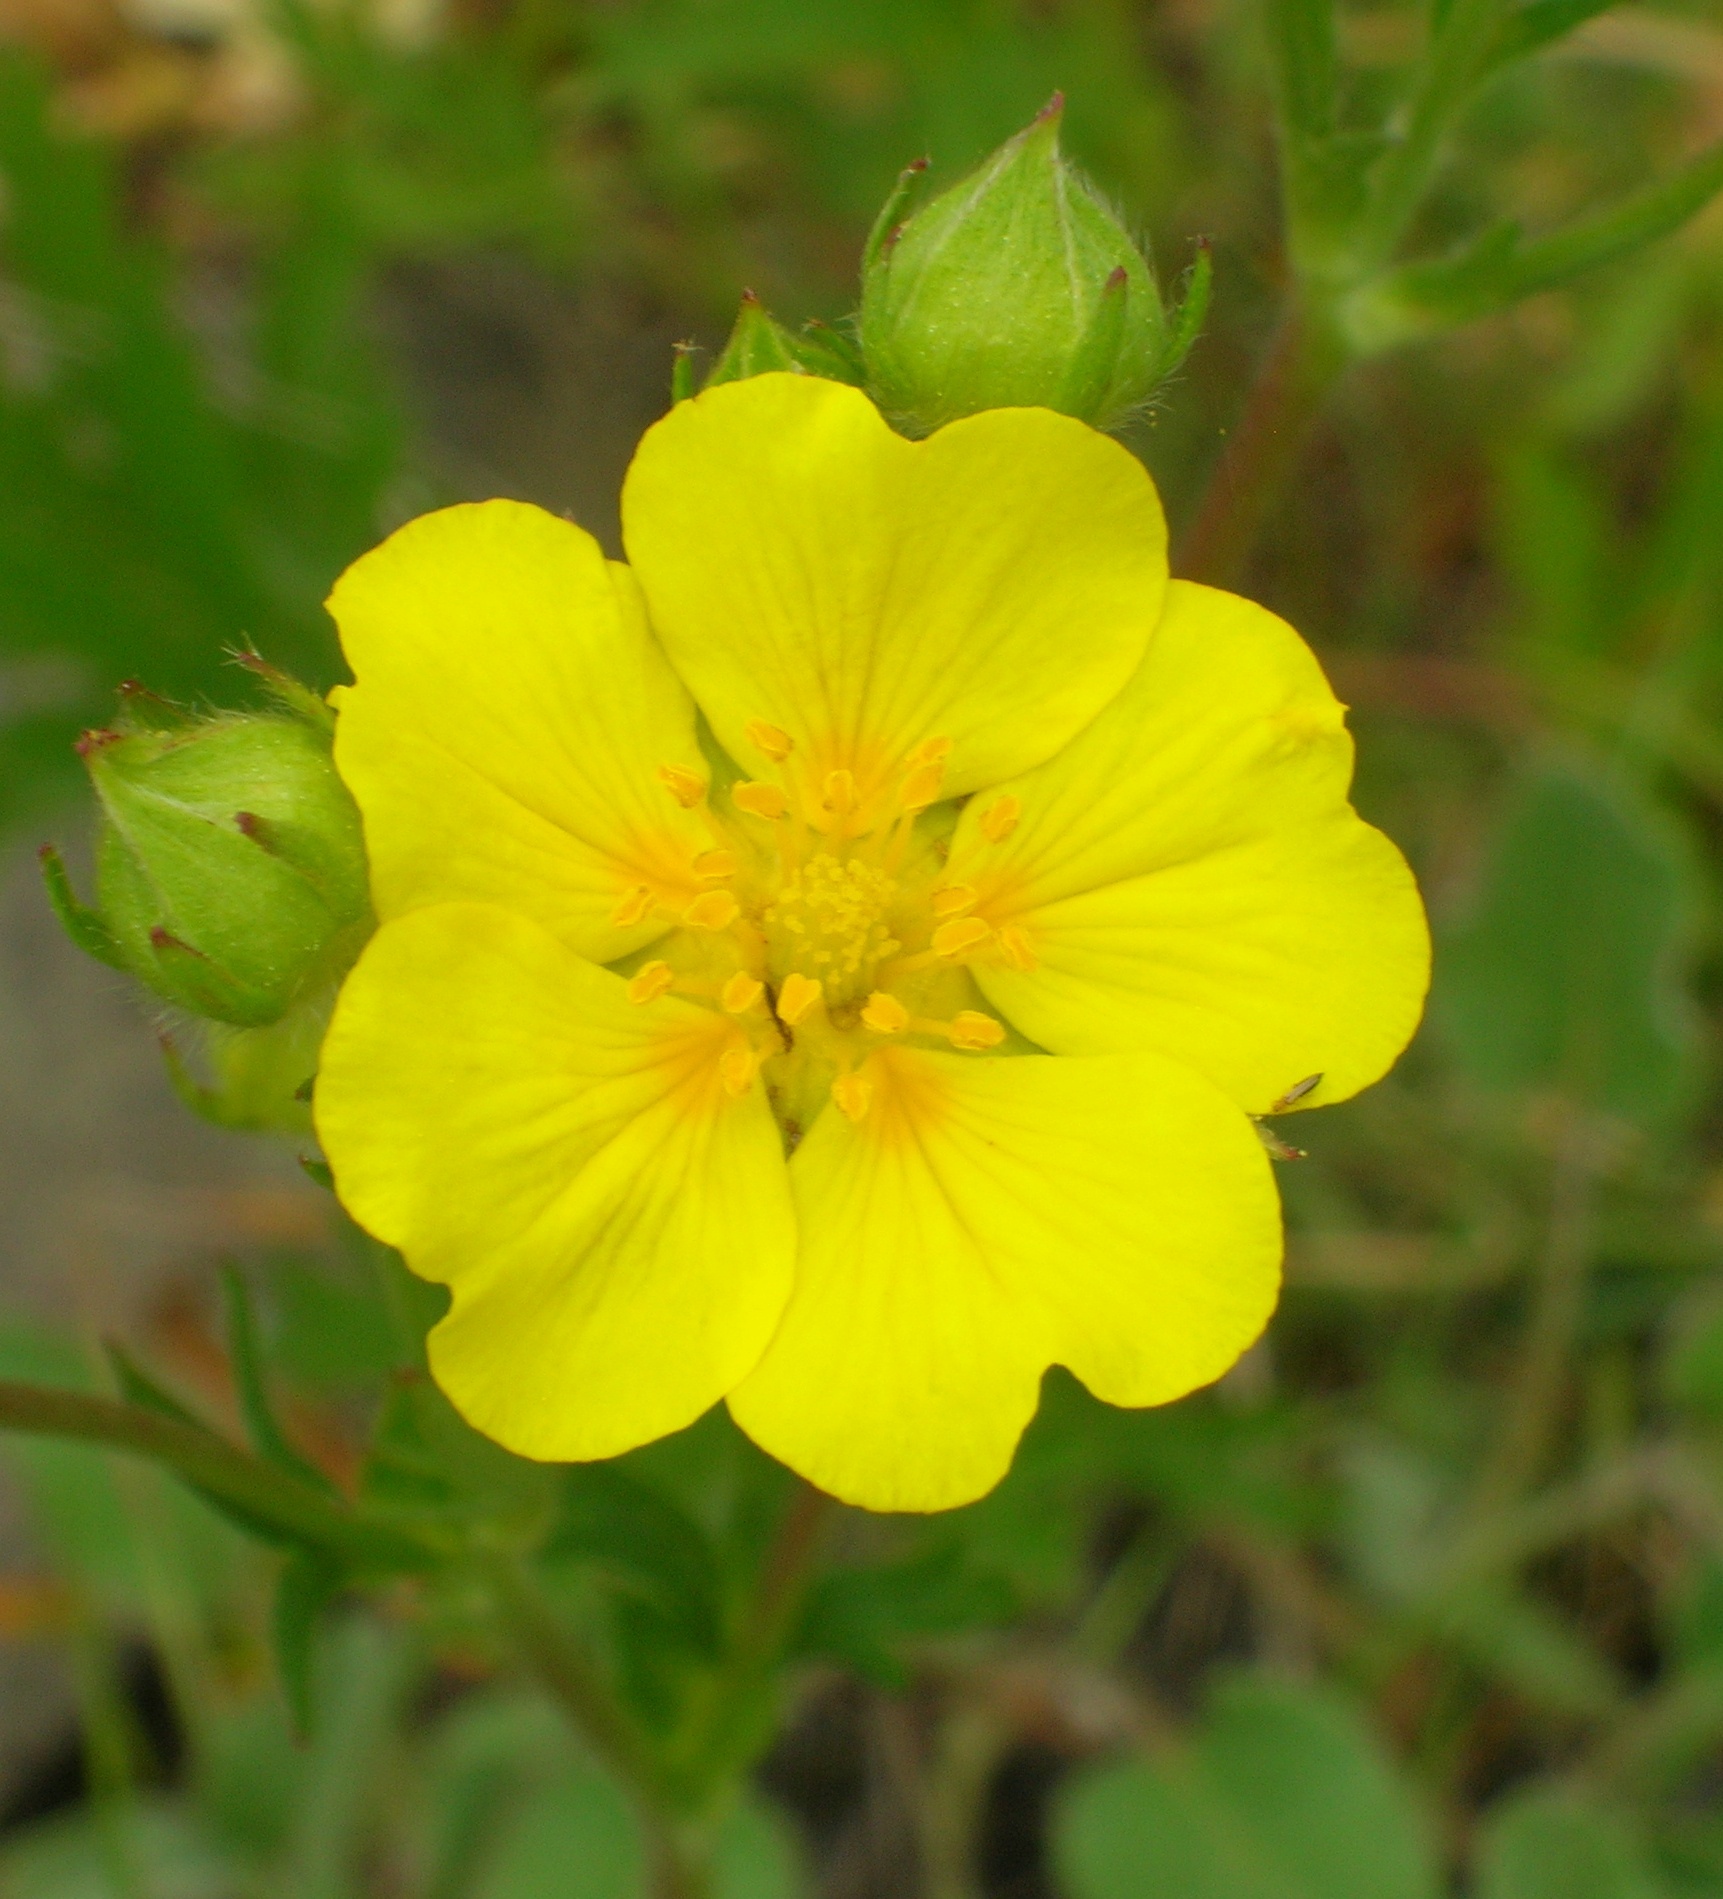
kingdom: Plantae
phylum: Tracheophyta
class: Magnoliopsida
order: Rosales
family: Rosaceae
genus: Potentilla
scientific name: Potentilla gracilis
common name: Graceful cinquefoil
